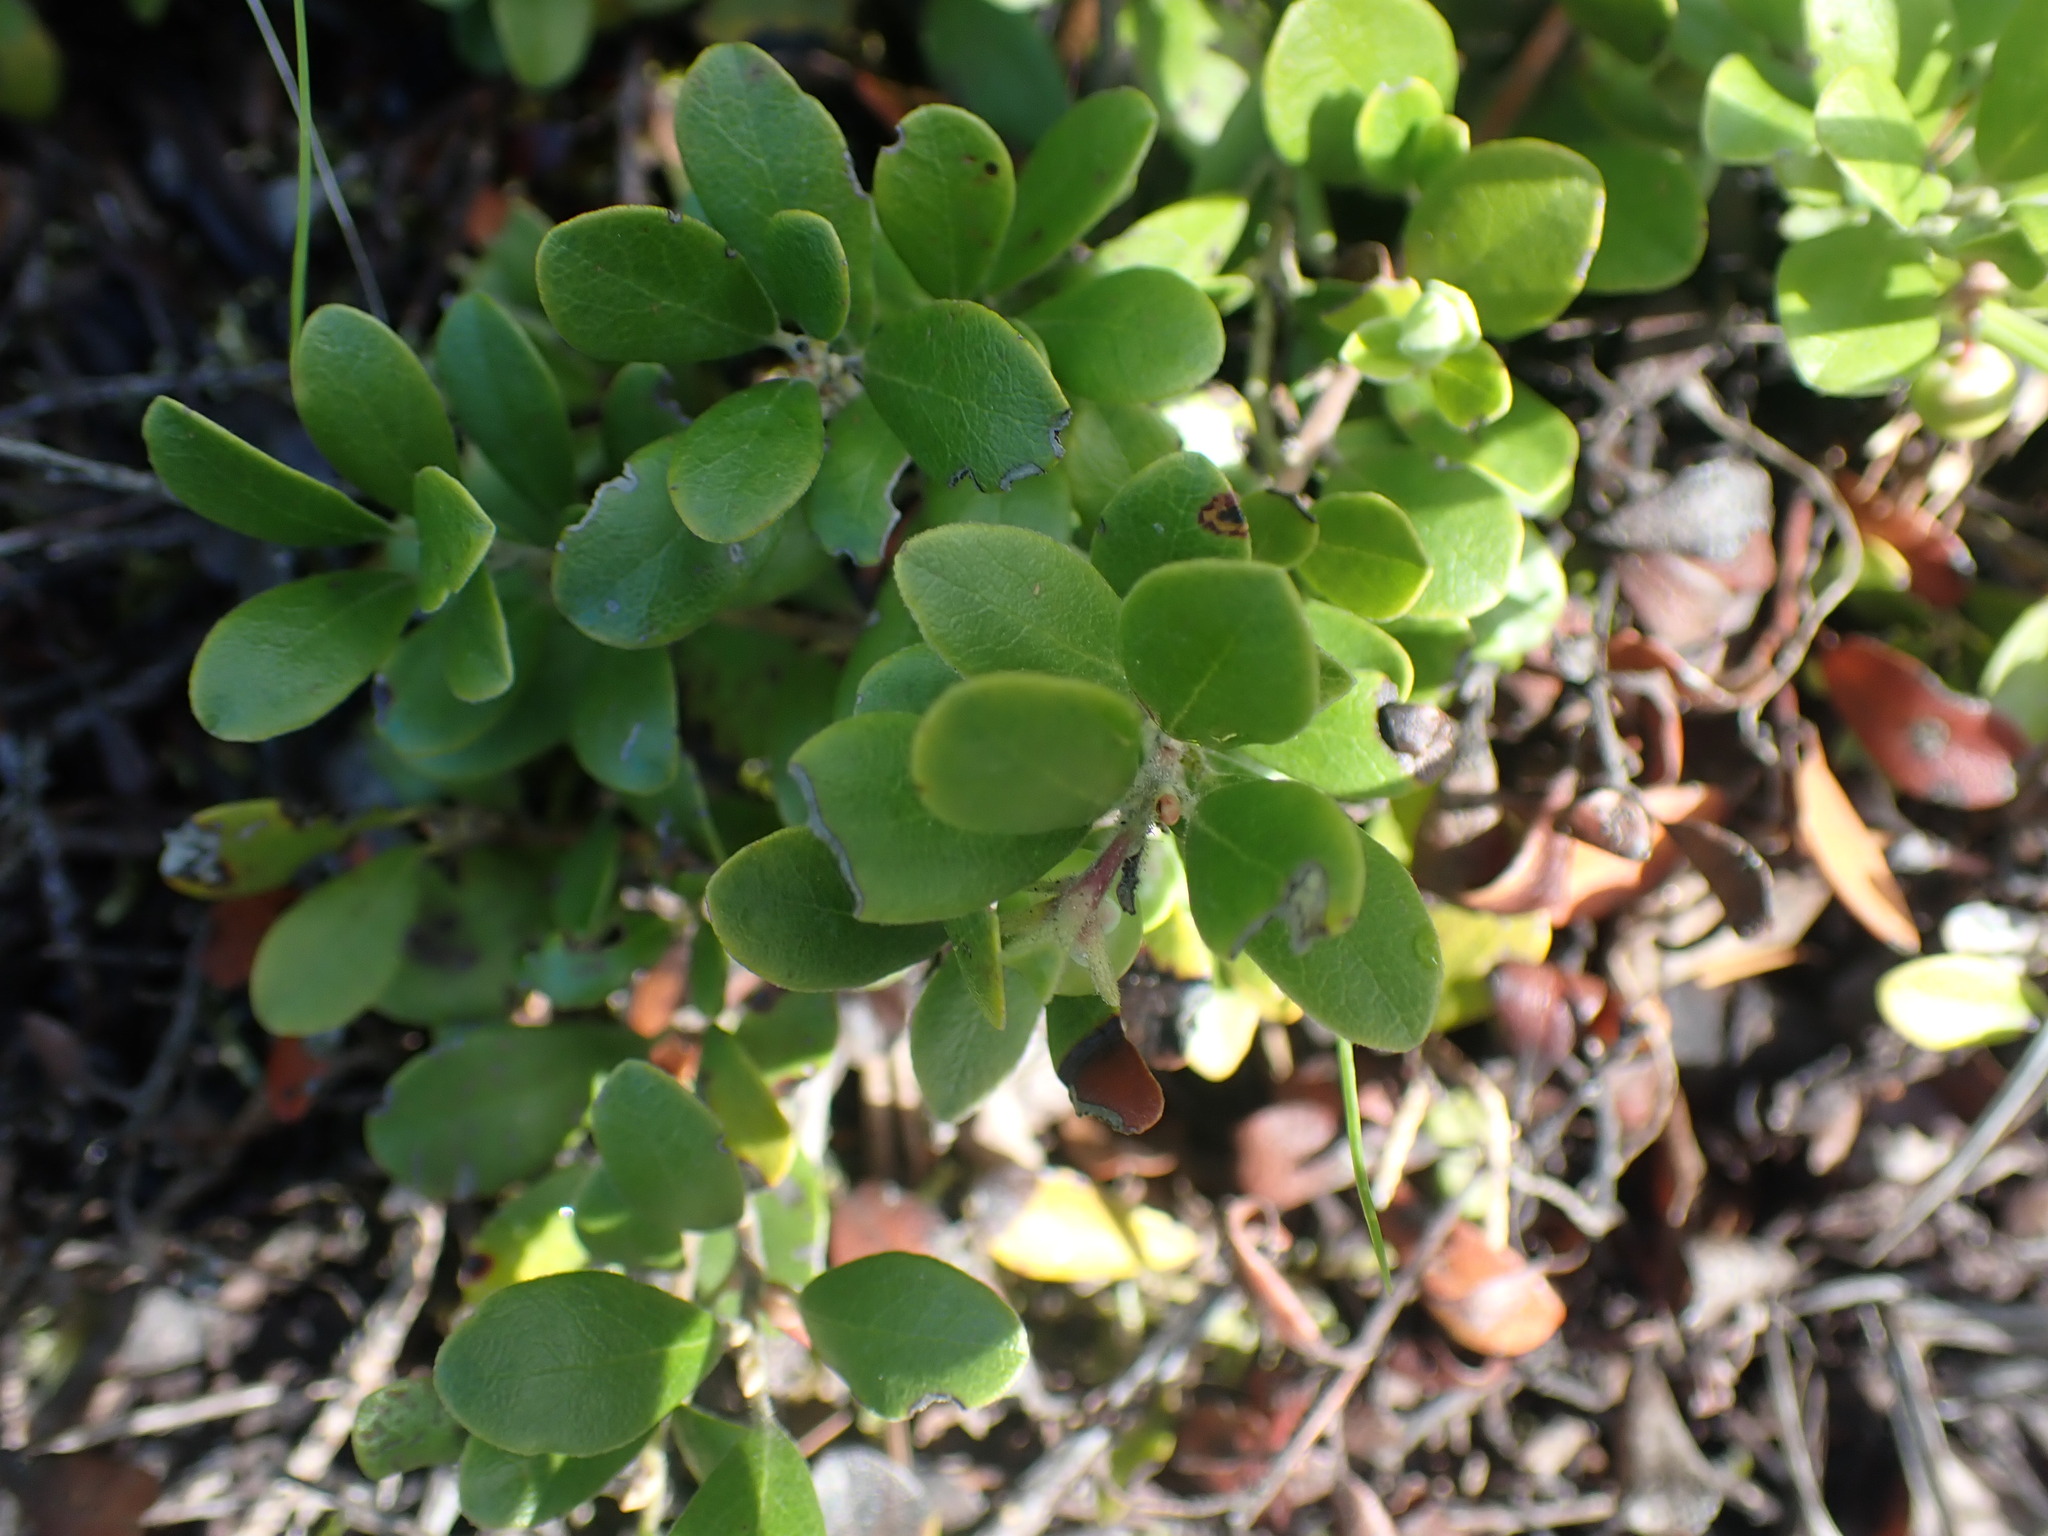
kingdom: Plantae
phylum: Tracheophyta
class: Magnoliopsida
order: Ericales
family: Ericaceae
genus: Arctostaphylos
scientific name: Arctostaphylos uva-ursi
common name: Bearberry
